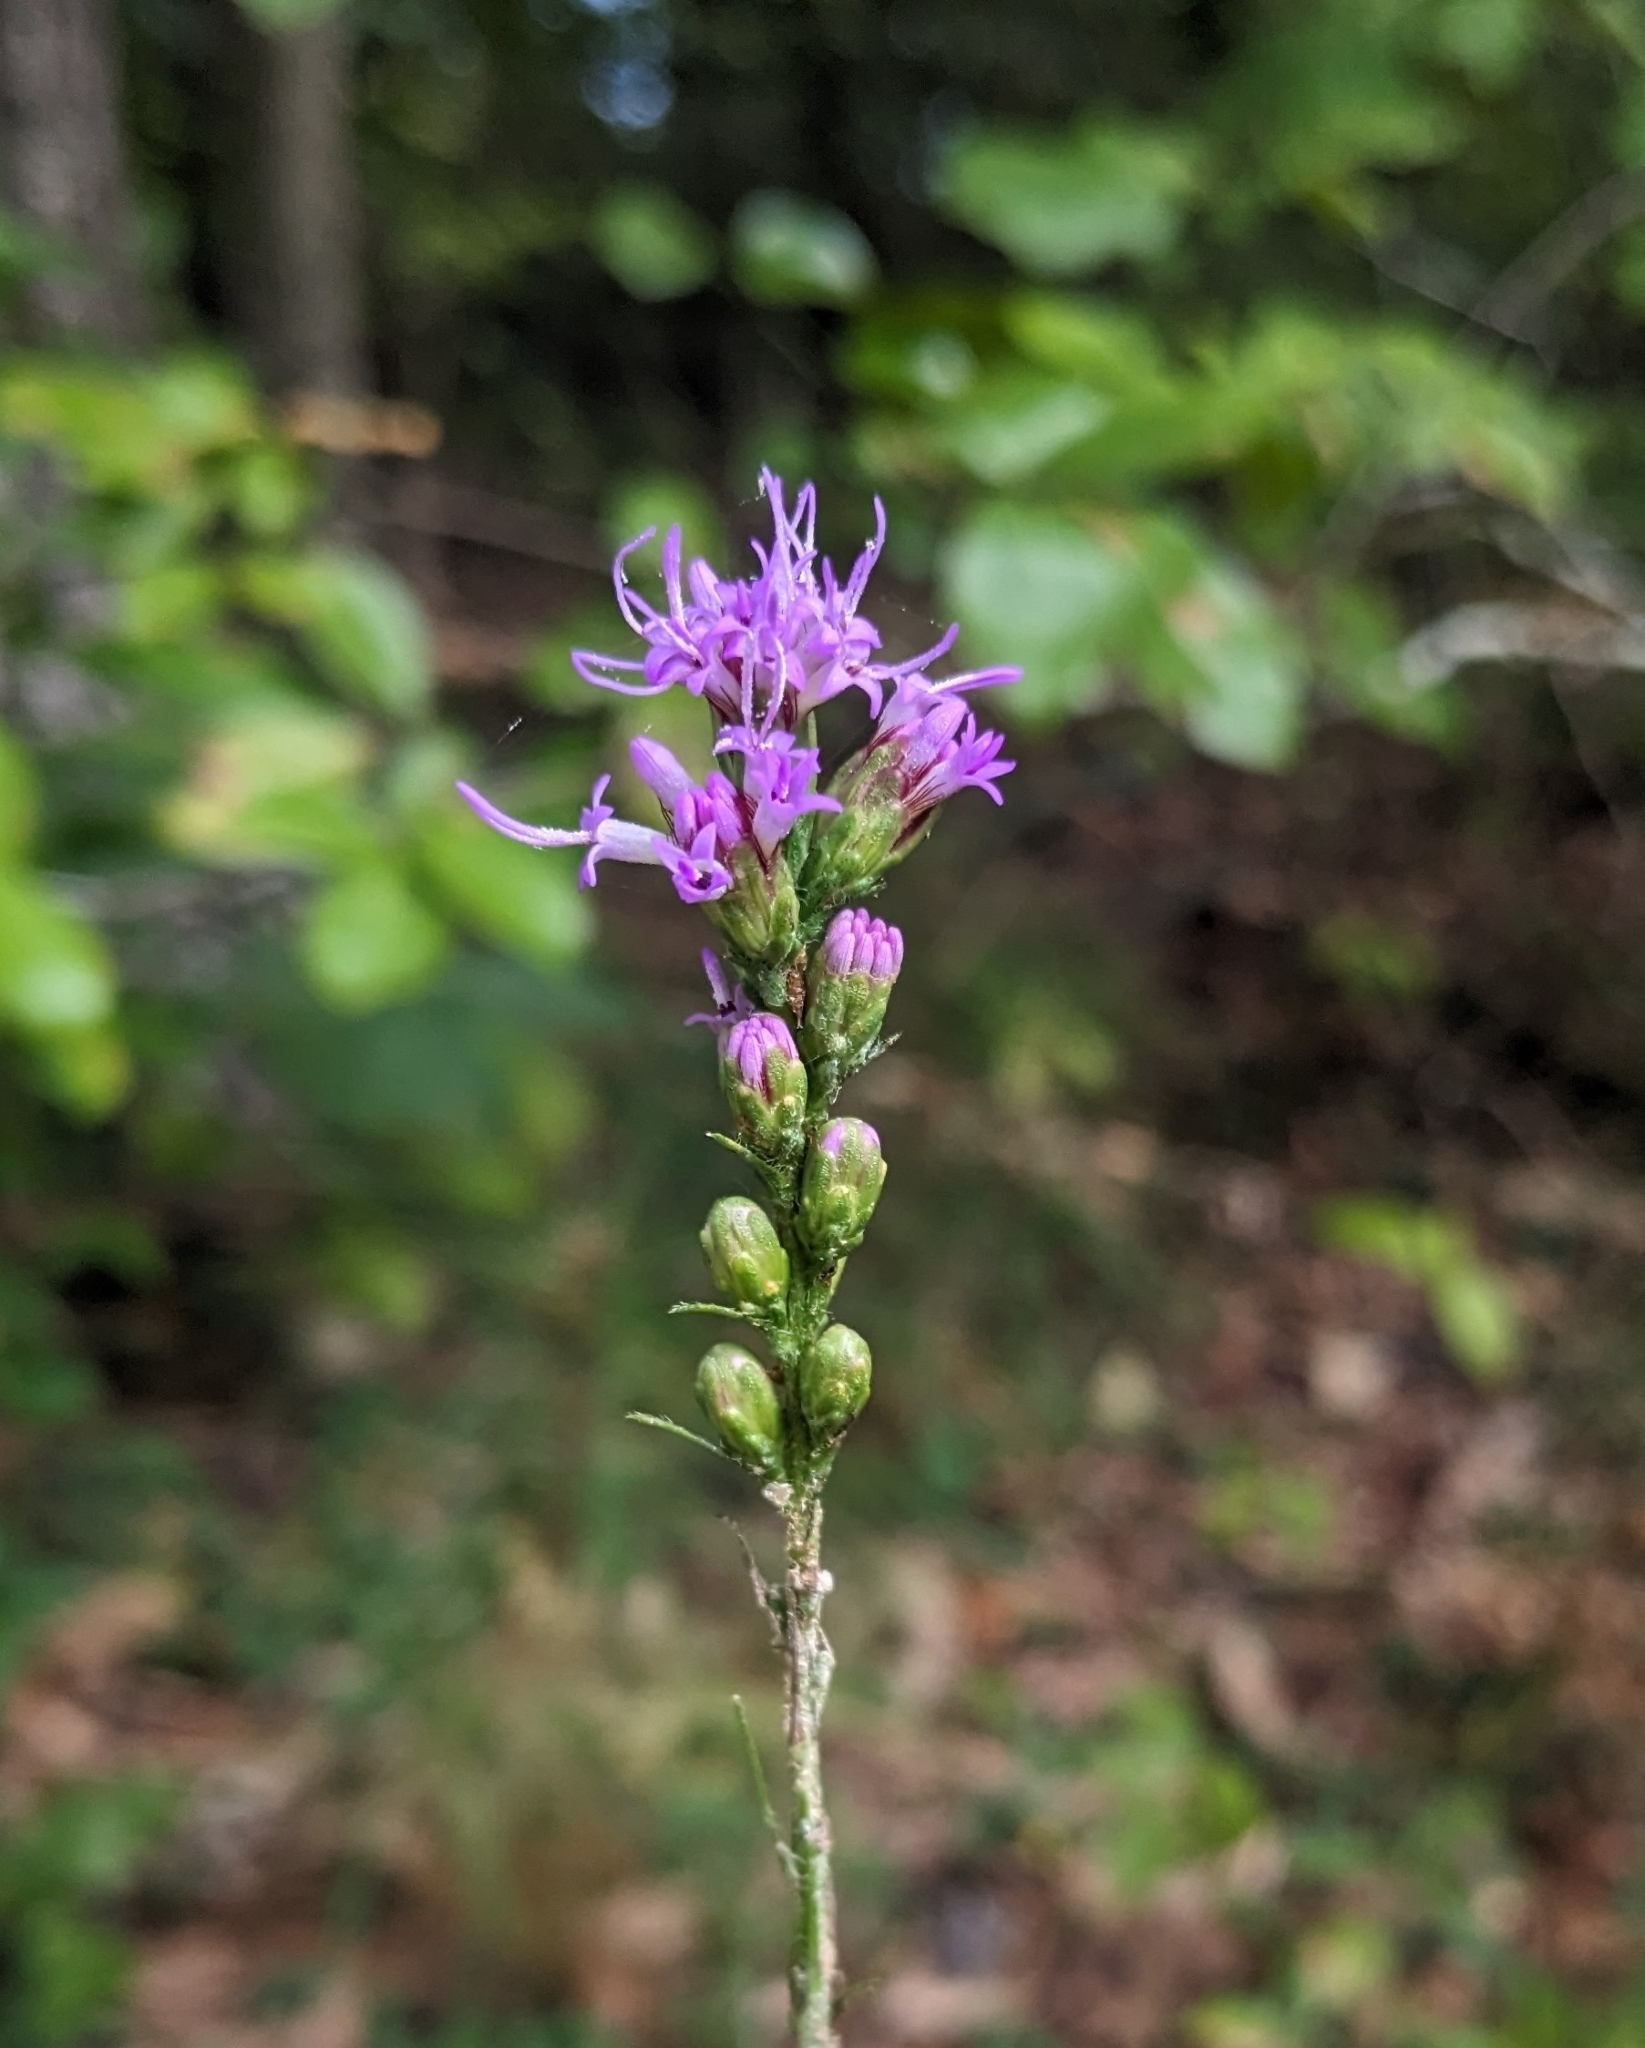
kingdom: Plantae
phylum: Tracheophyta
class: Magnoliopsida
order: Asterales
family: Asteraceae
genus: Liatris
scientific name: Liatris pilosa
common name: Grass-leaf gayfeather
